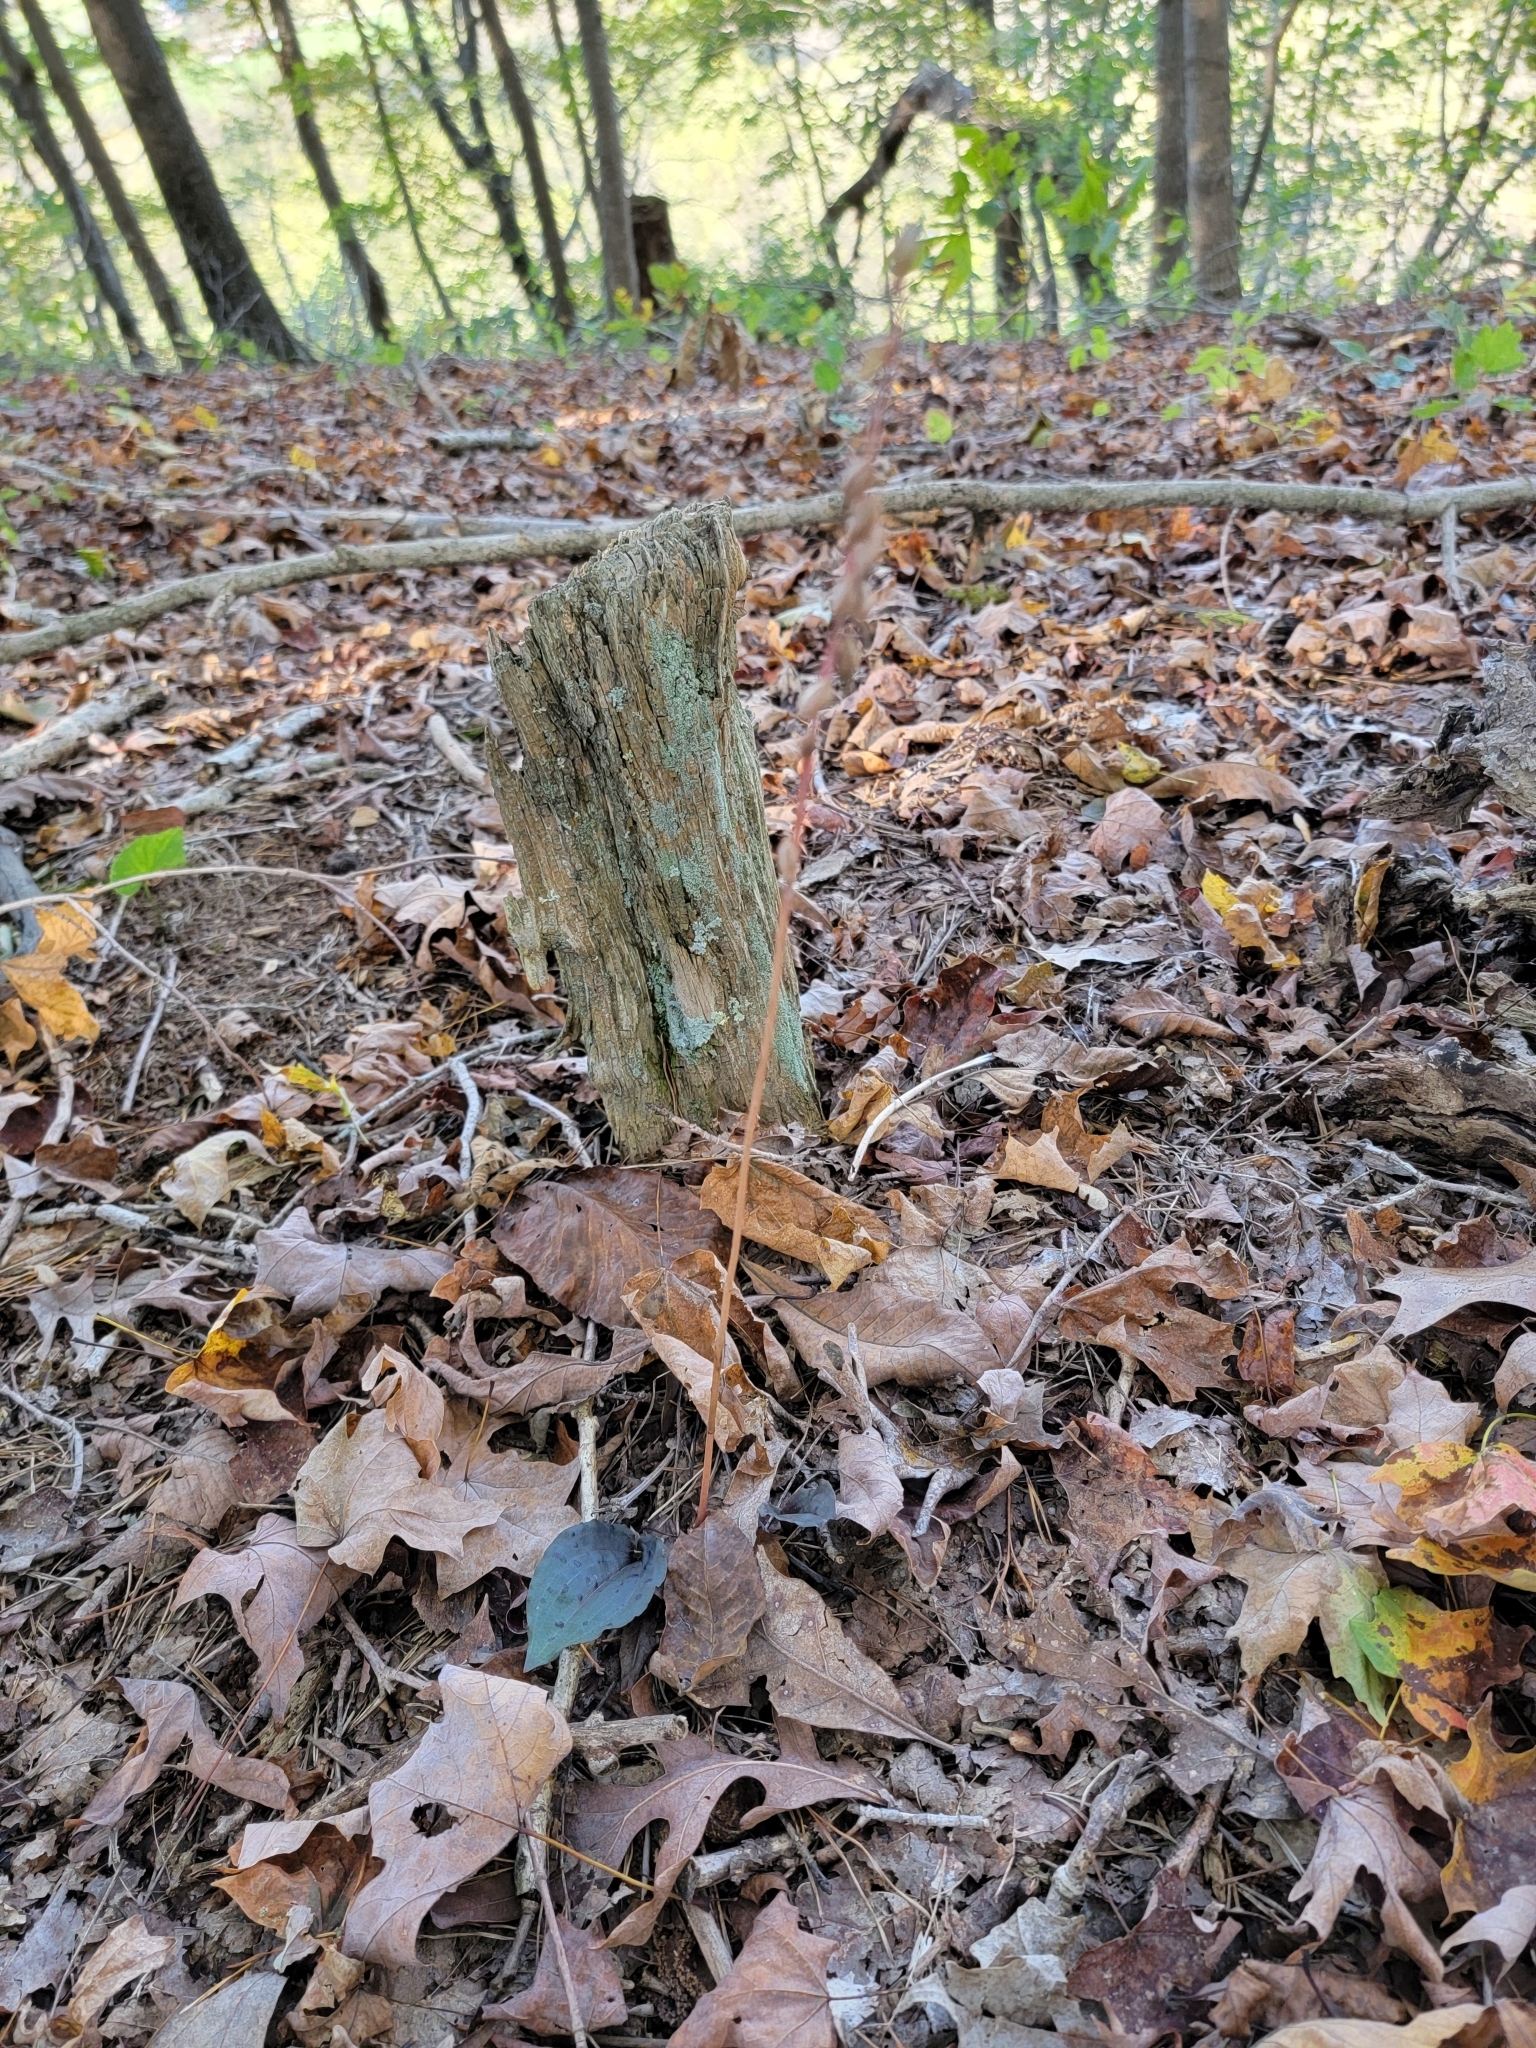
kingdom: Plantae
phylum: Tracheophyta
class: Liliopsida
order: Asparagales
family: Orchidaceae
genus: Tipularia
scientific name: Tipularia discolor
